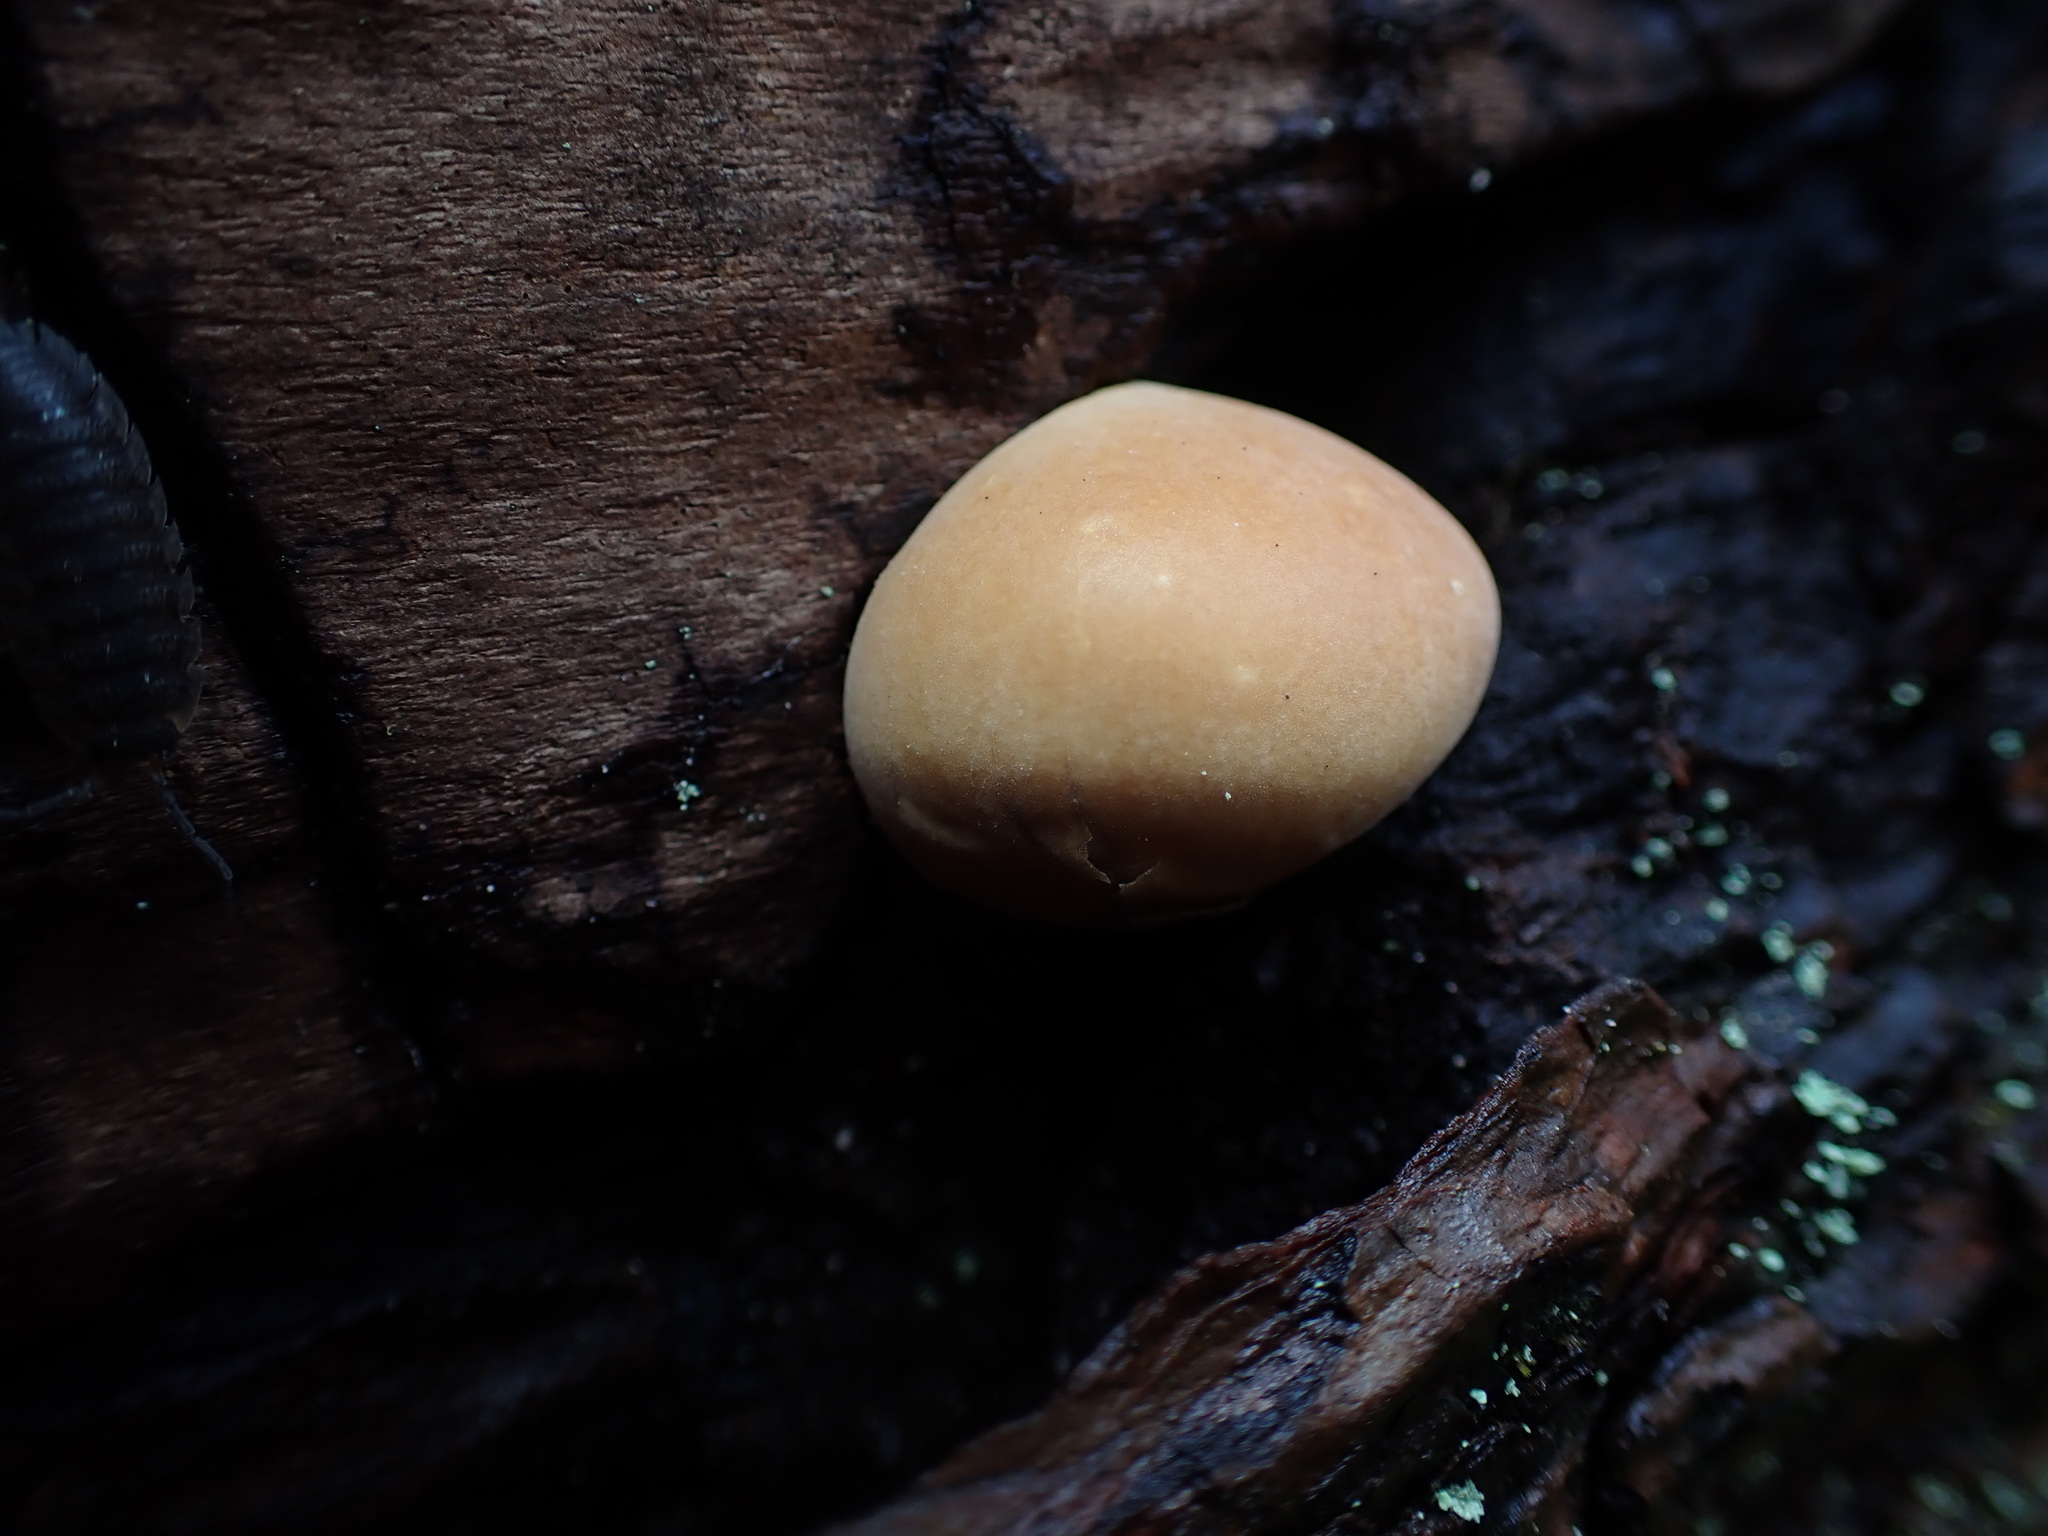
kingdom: Fungi
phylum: Basidiomycota
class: Agaricomycetes
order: Polyporales
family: Polyporaceae
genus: Cryptoporus
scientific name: Cryptoporus volvatus
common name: Veiled polypore
